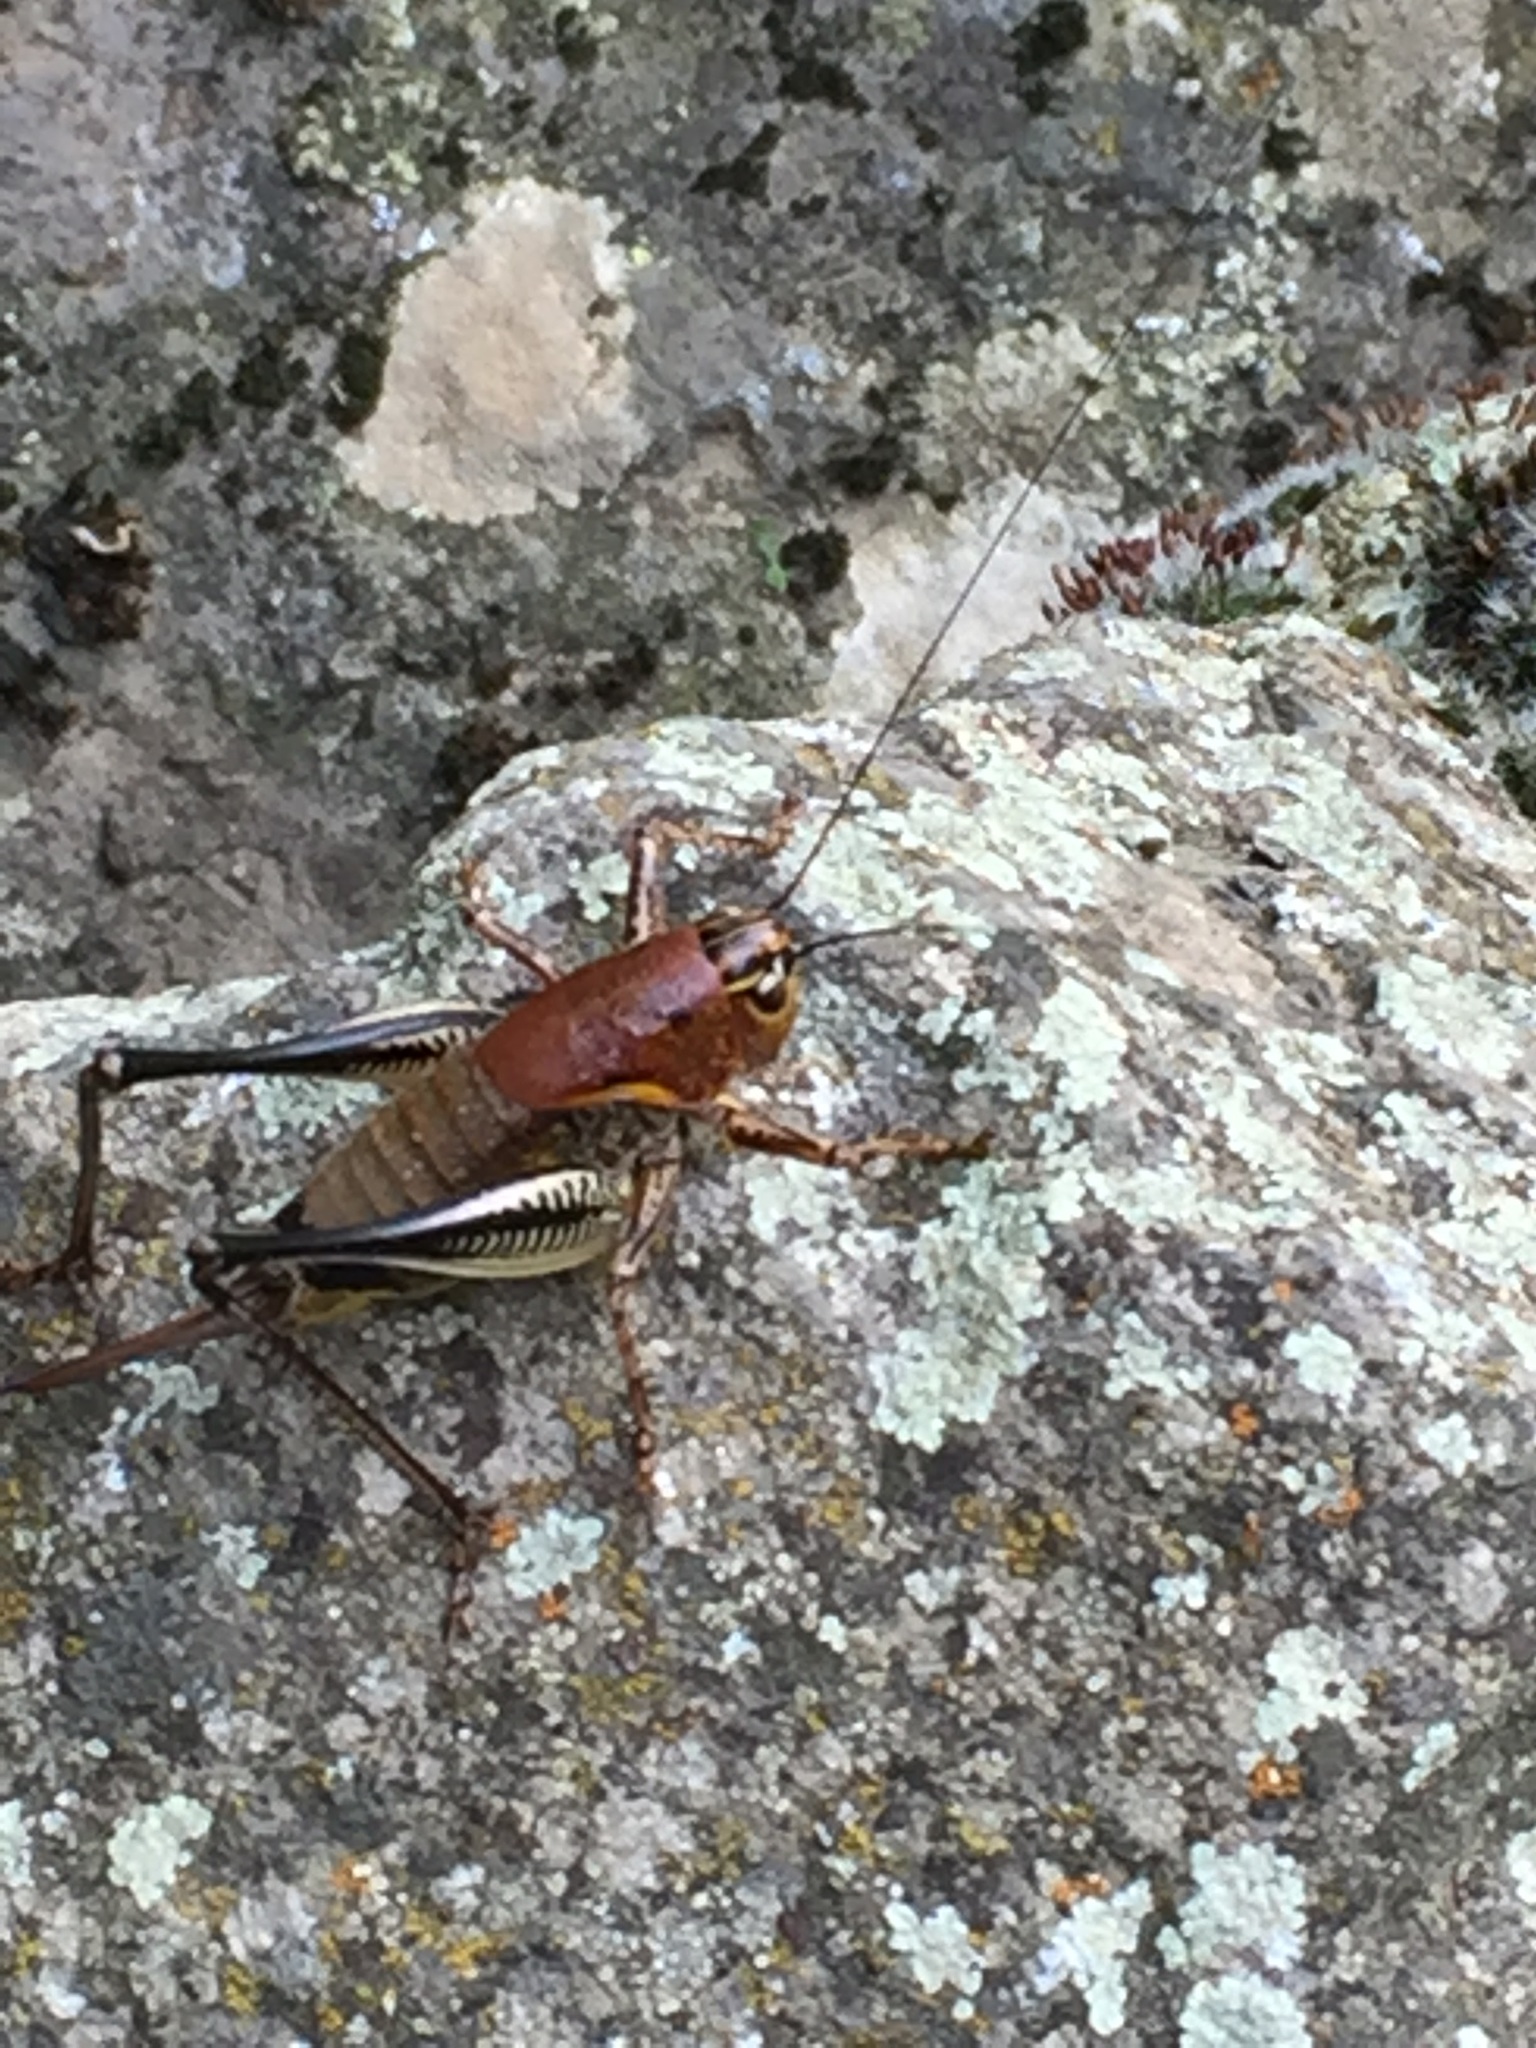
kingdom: Animalia
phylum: Arthropoda
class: Insecta
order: Orthoptera
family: Tettigoniidae
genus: Uvarovistia
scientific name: Uvarovistia satunini
